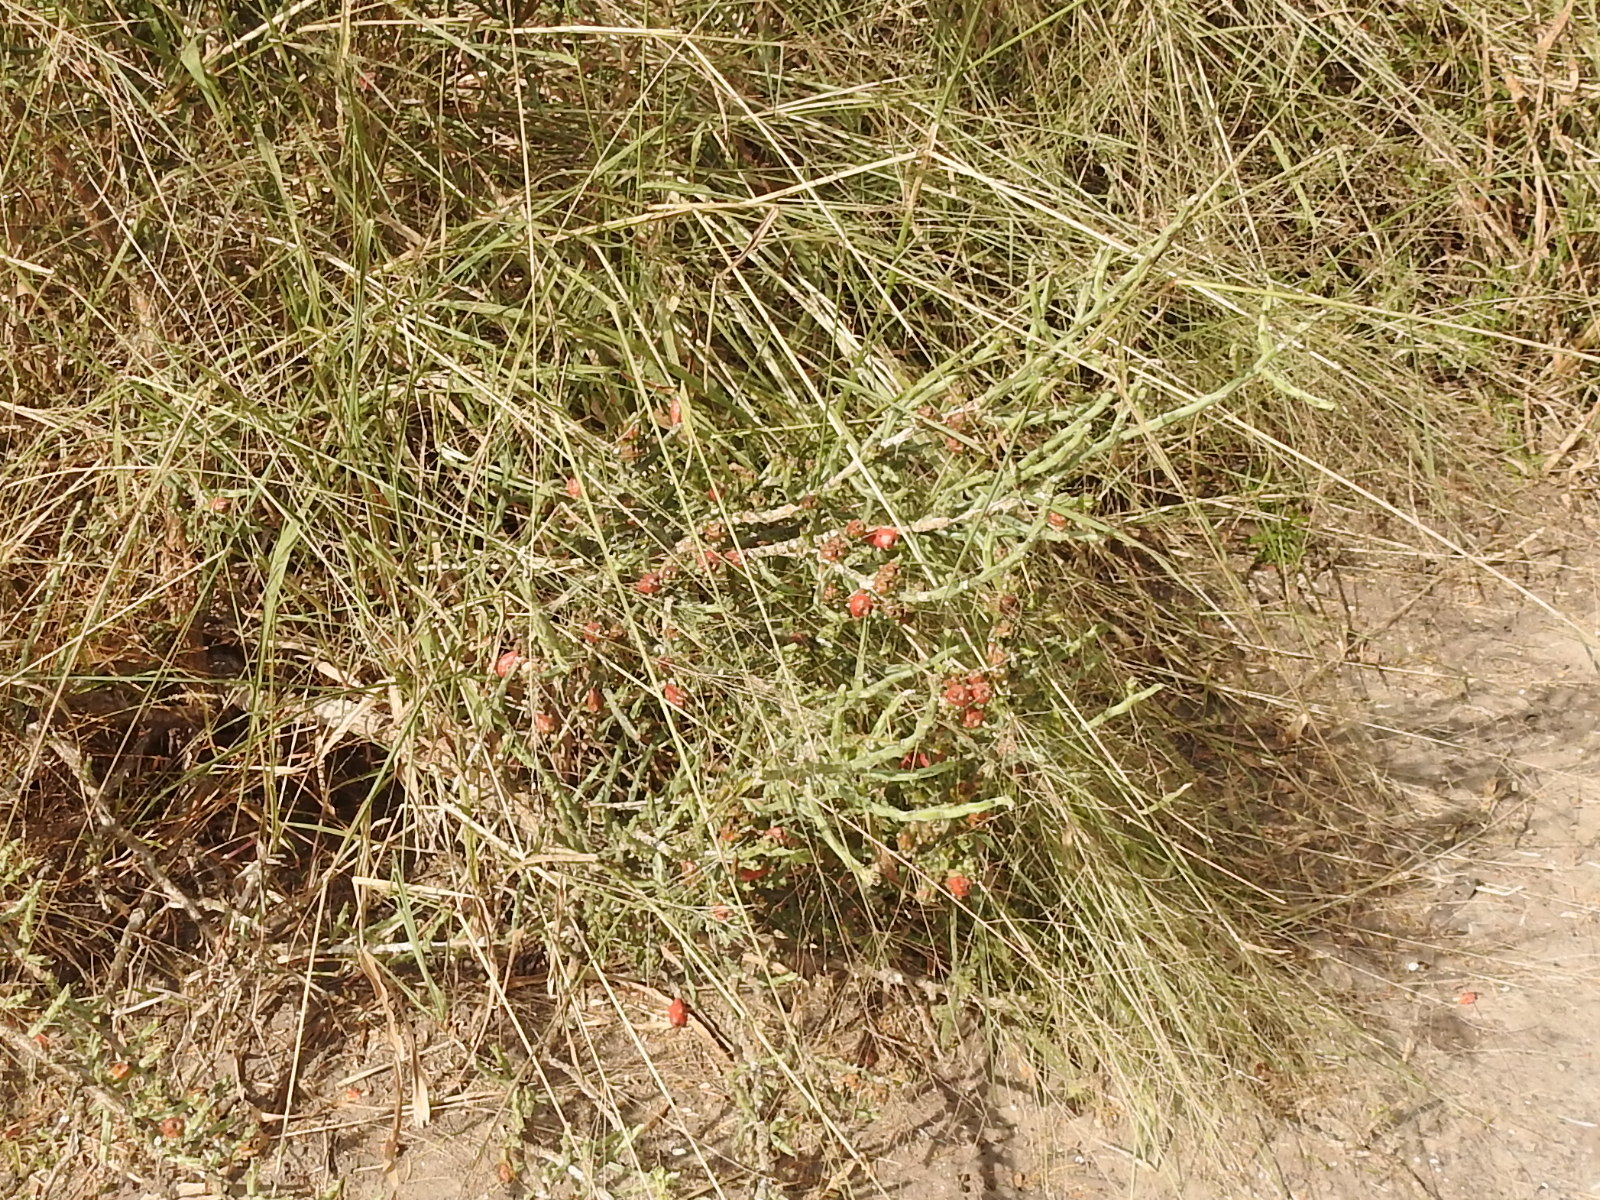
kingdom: Plantae
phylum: Tracheophyta
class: Magnoliopsida
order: Caryophyllales
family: Cactaceae
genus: Cylindropuntia
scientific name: Cylindropuntia leptocaulis
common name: Christmas cactus
